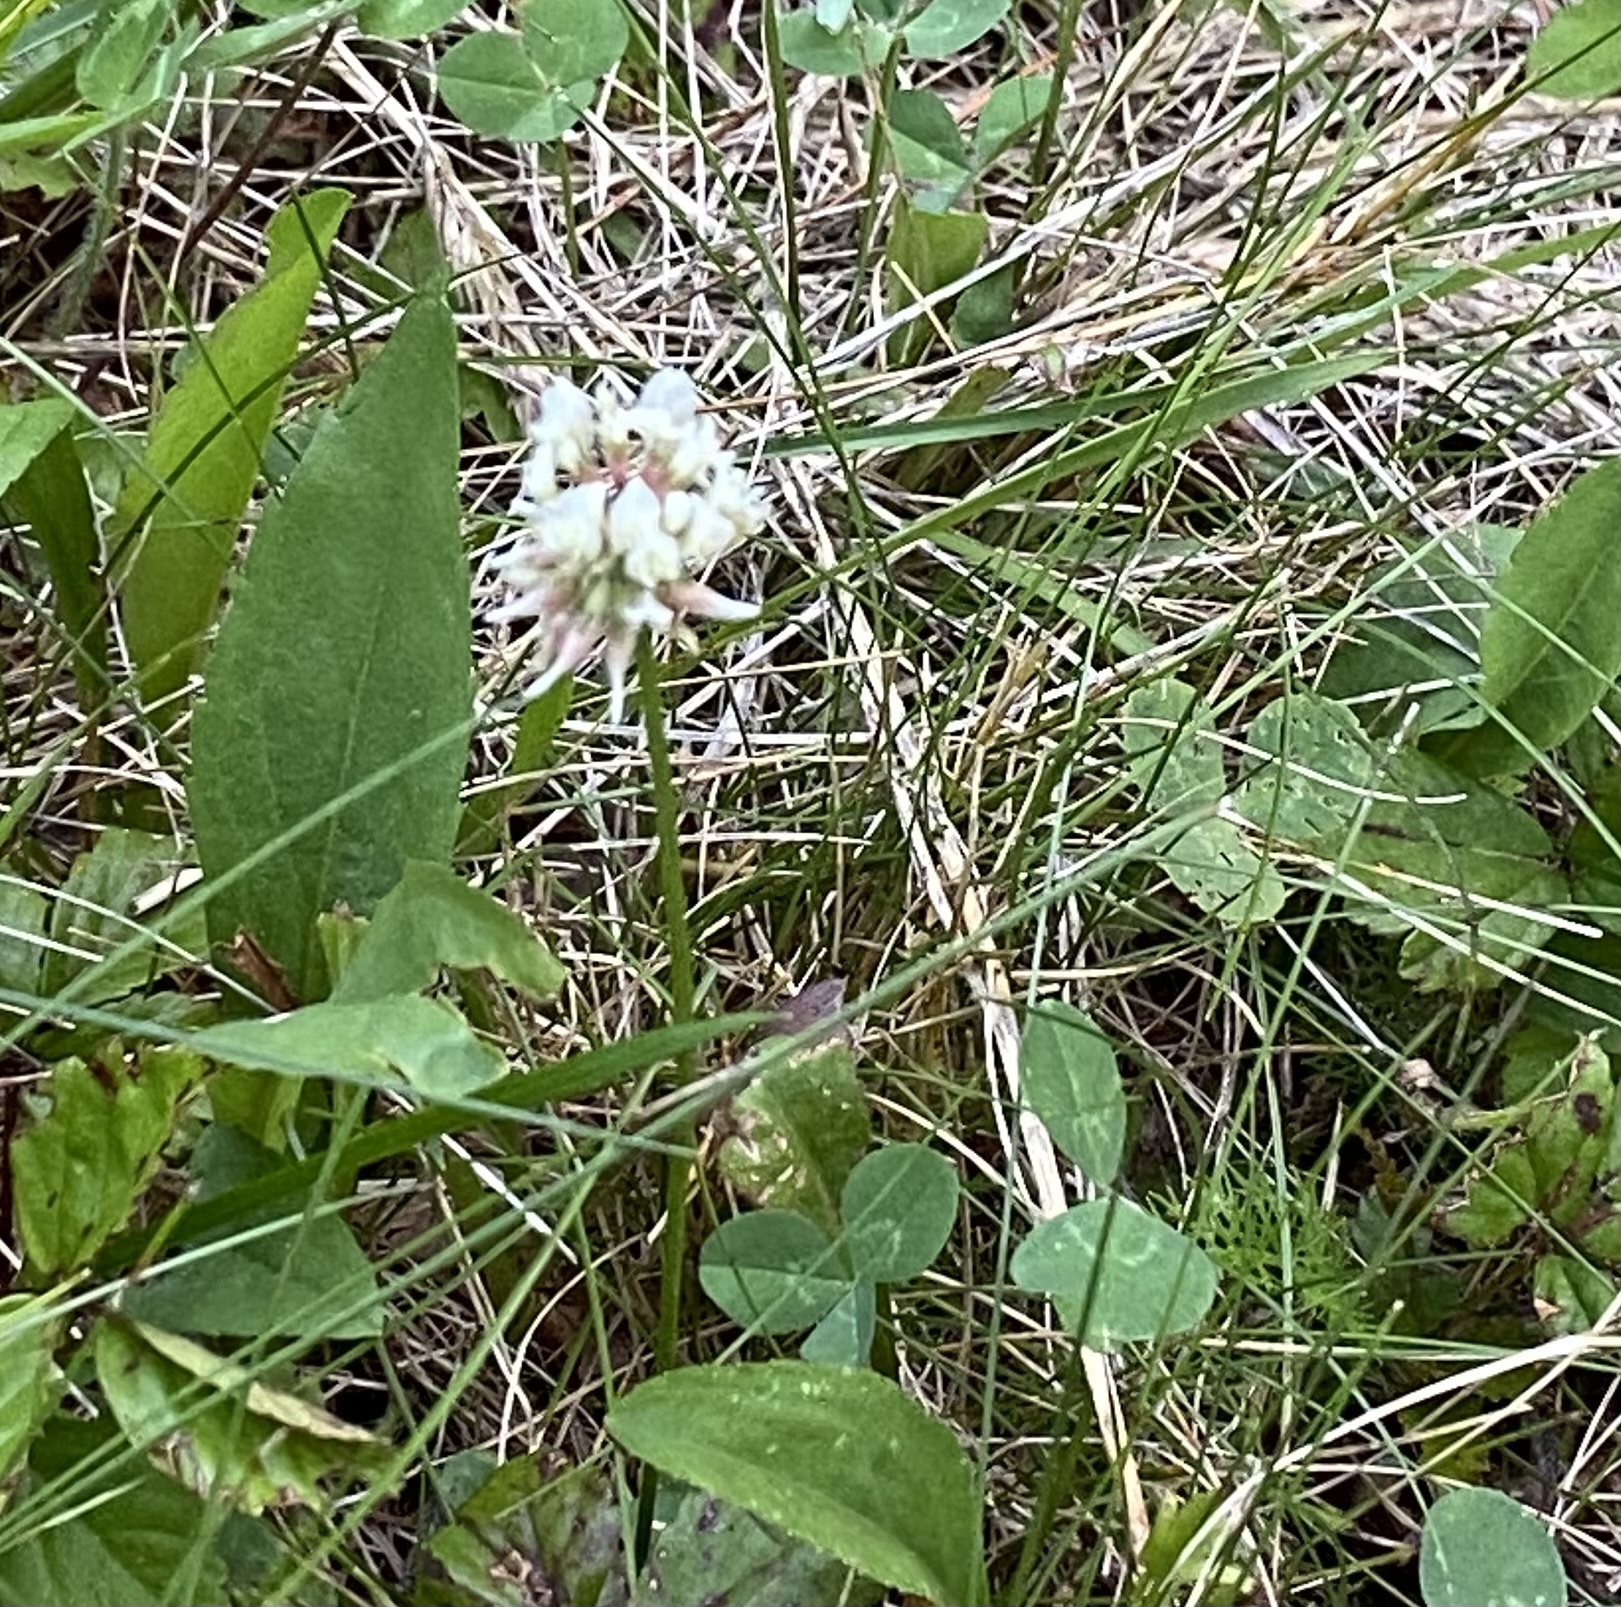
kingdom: Plantae
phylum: Tracheophyta
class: Magnoliopsida
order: Fabales
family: Fabaceae
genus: Trifolium
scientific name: Trifolium repens
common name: White clover
